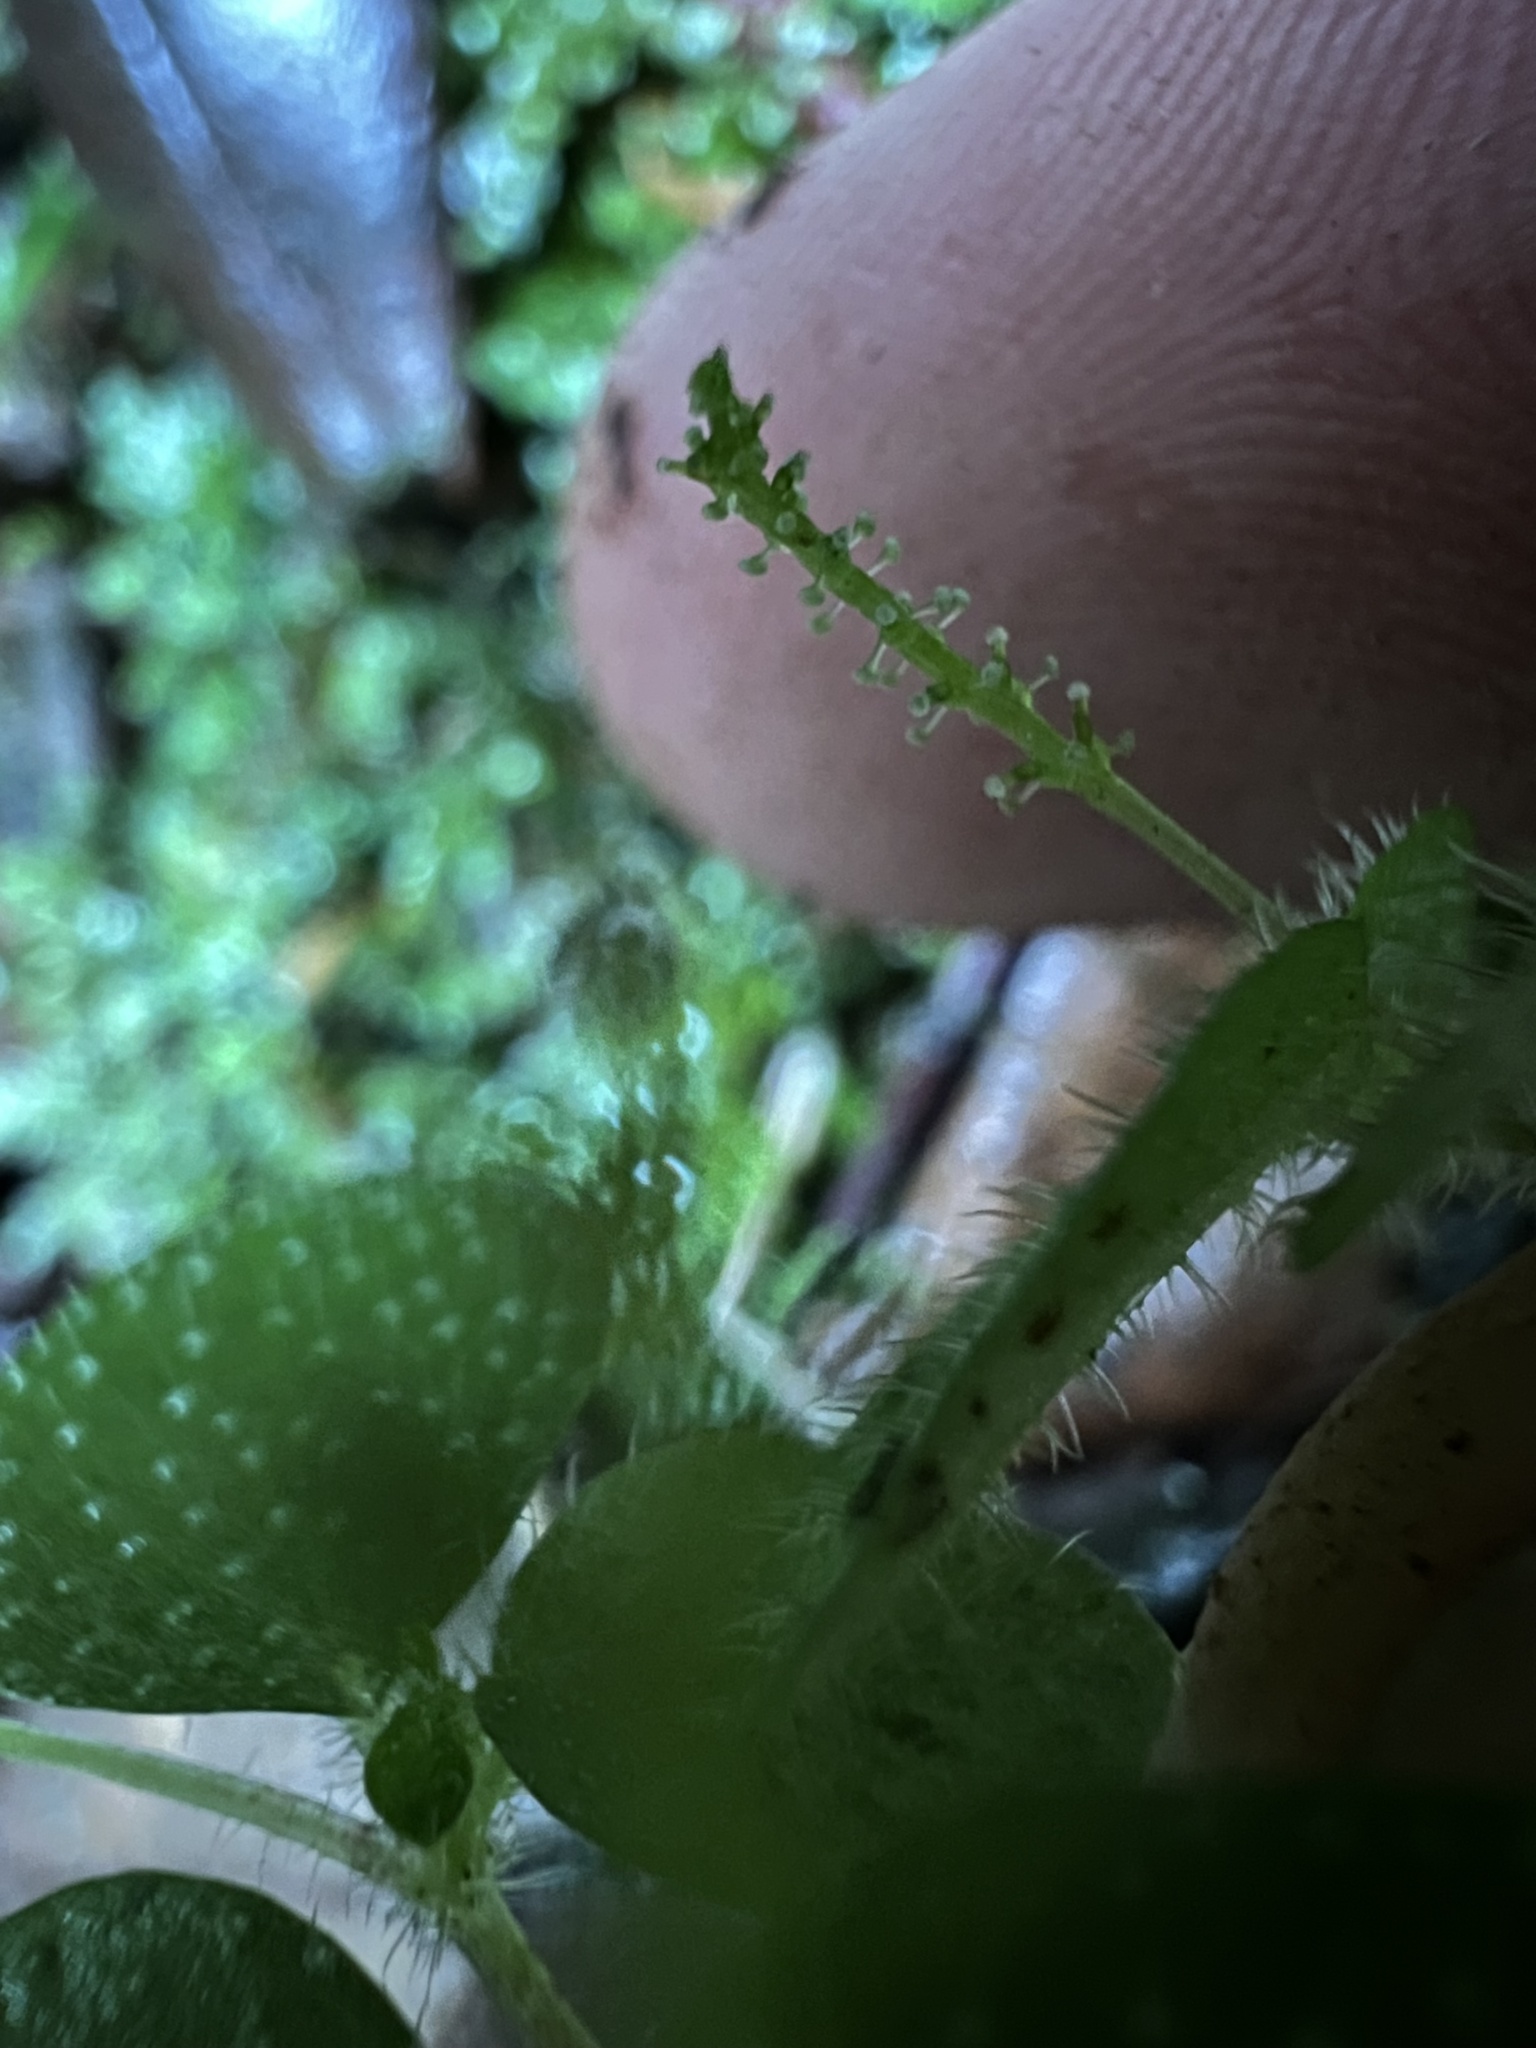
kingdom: Plantae
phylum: Tracheophyta
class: Magnoliopsida
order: Piperales
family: Piperaceae
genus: Peperomia
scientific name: Peperomia hispidula
